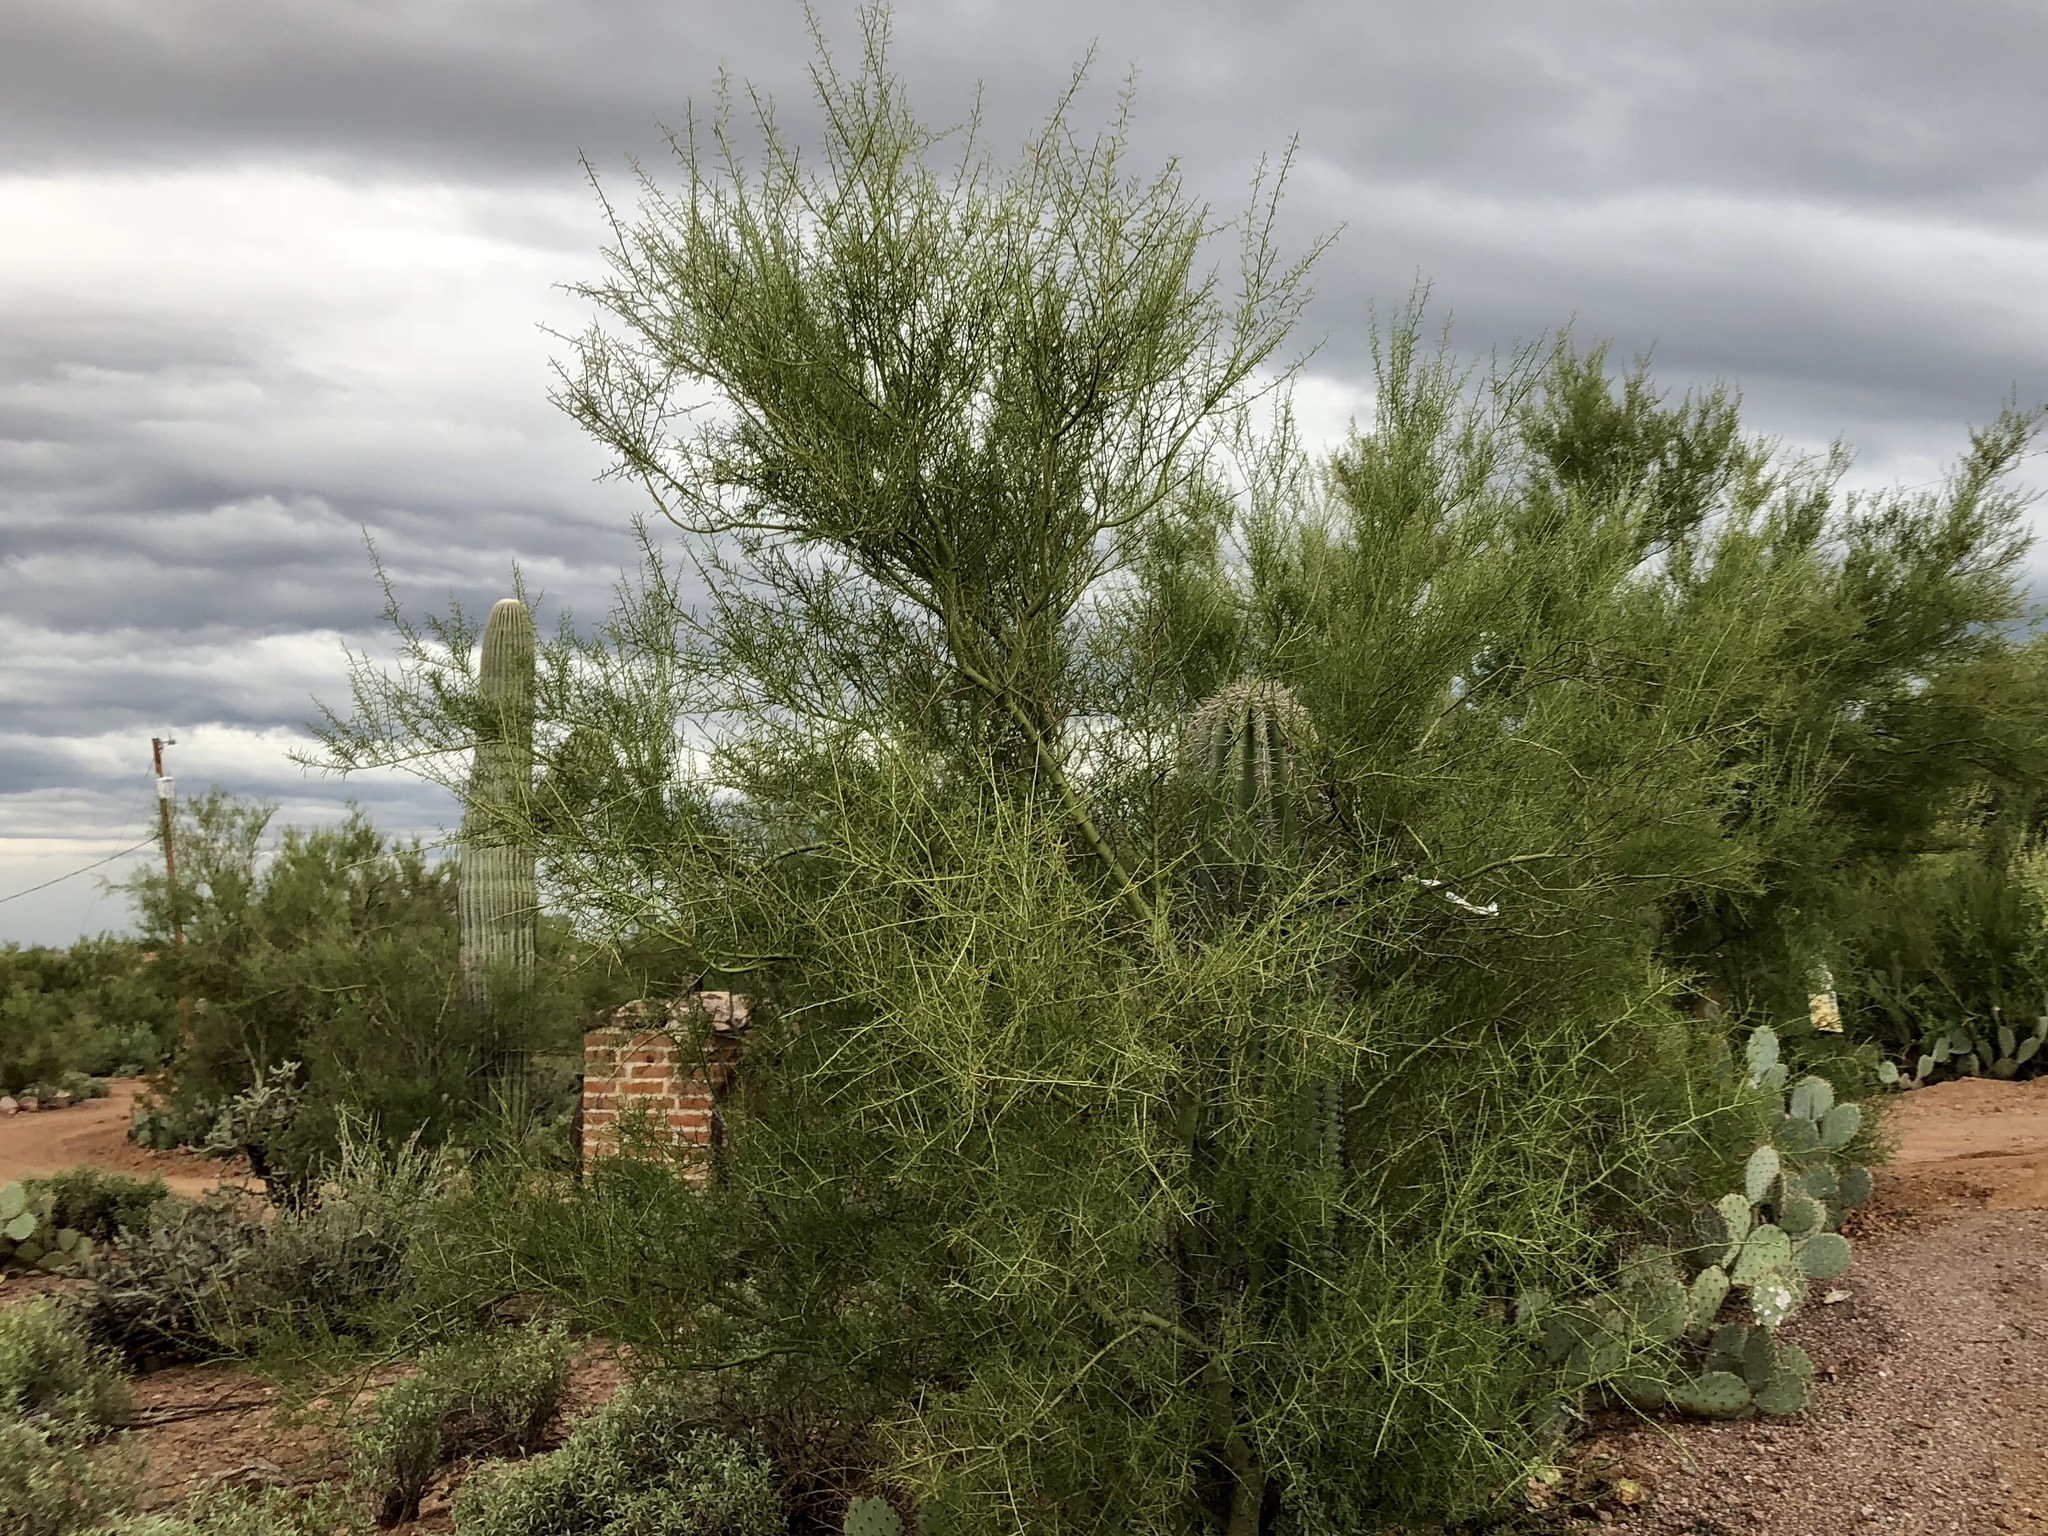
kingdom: Plantae
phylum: Tracheophyta
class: Magnoliopsida
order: Fabales
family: Fabaceae
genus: Parkinsonia
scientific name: Parkinsonia microphylla
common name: Yellow paloverde
